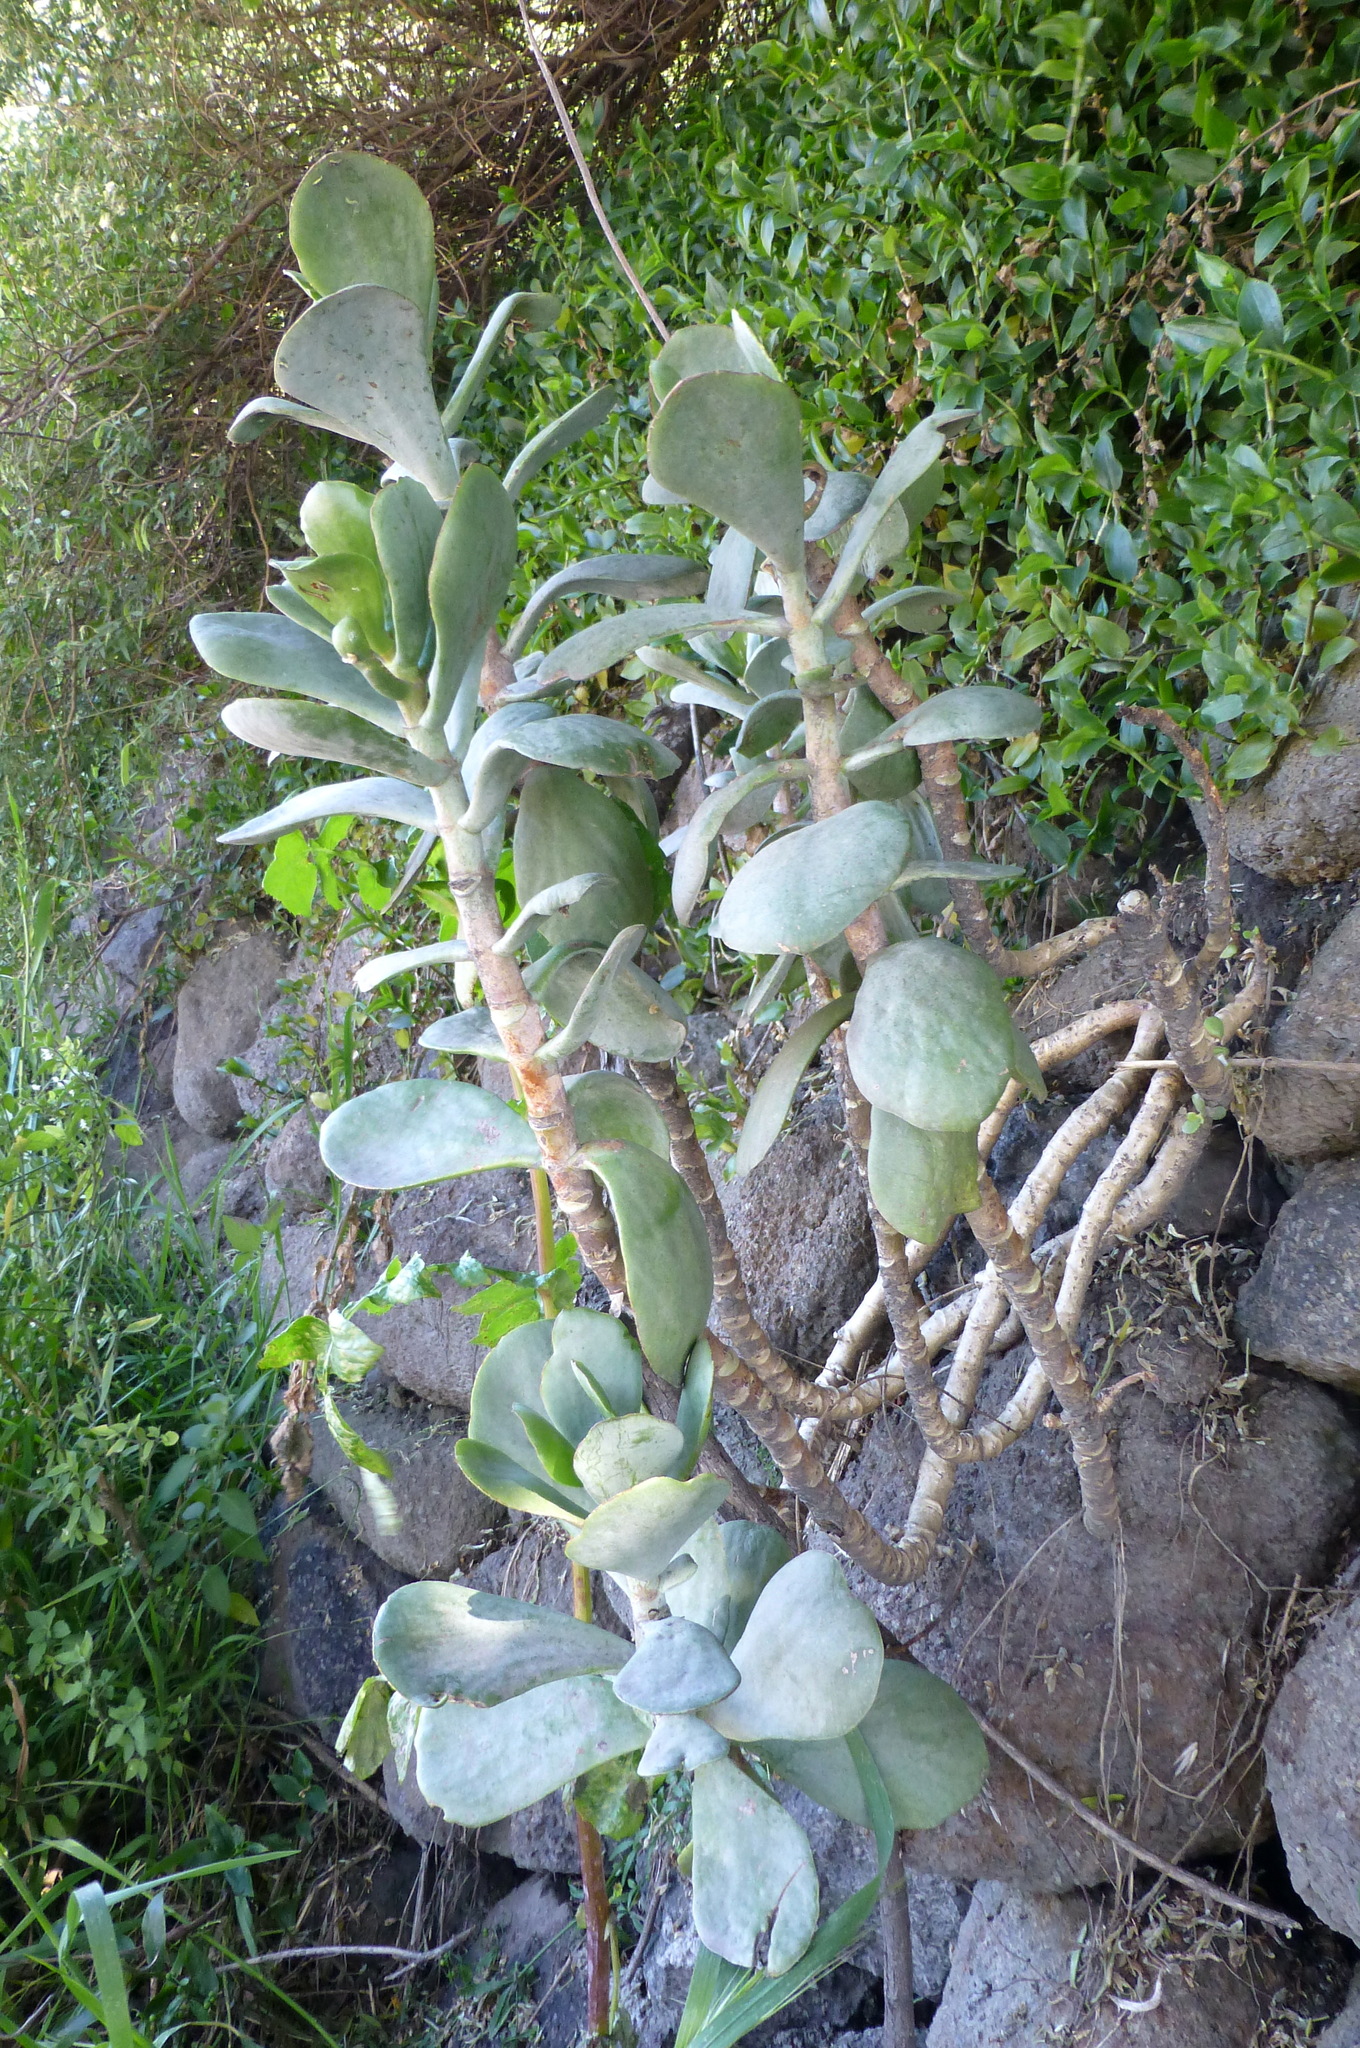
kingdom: Plantae
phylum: Tracheophyta
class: Magnoliopsida
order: Saxifragales
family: Crassulaceae
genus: Cotyledon
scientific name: Cotyledon orbiculata
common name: Pig's ear
